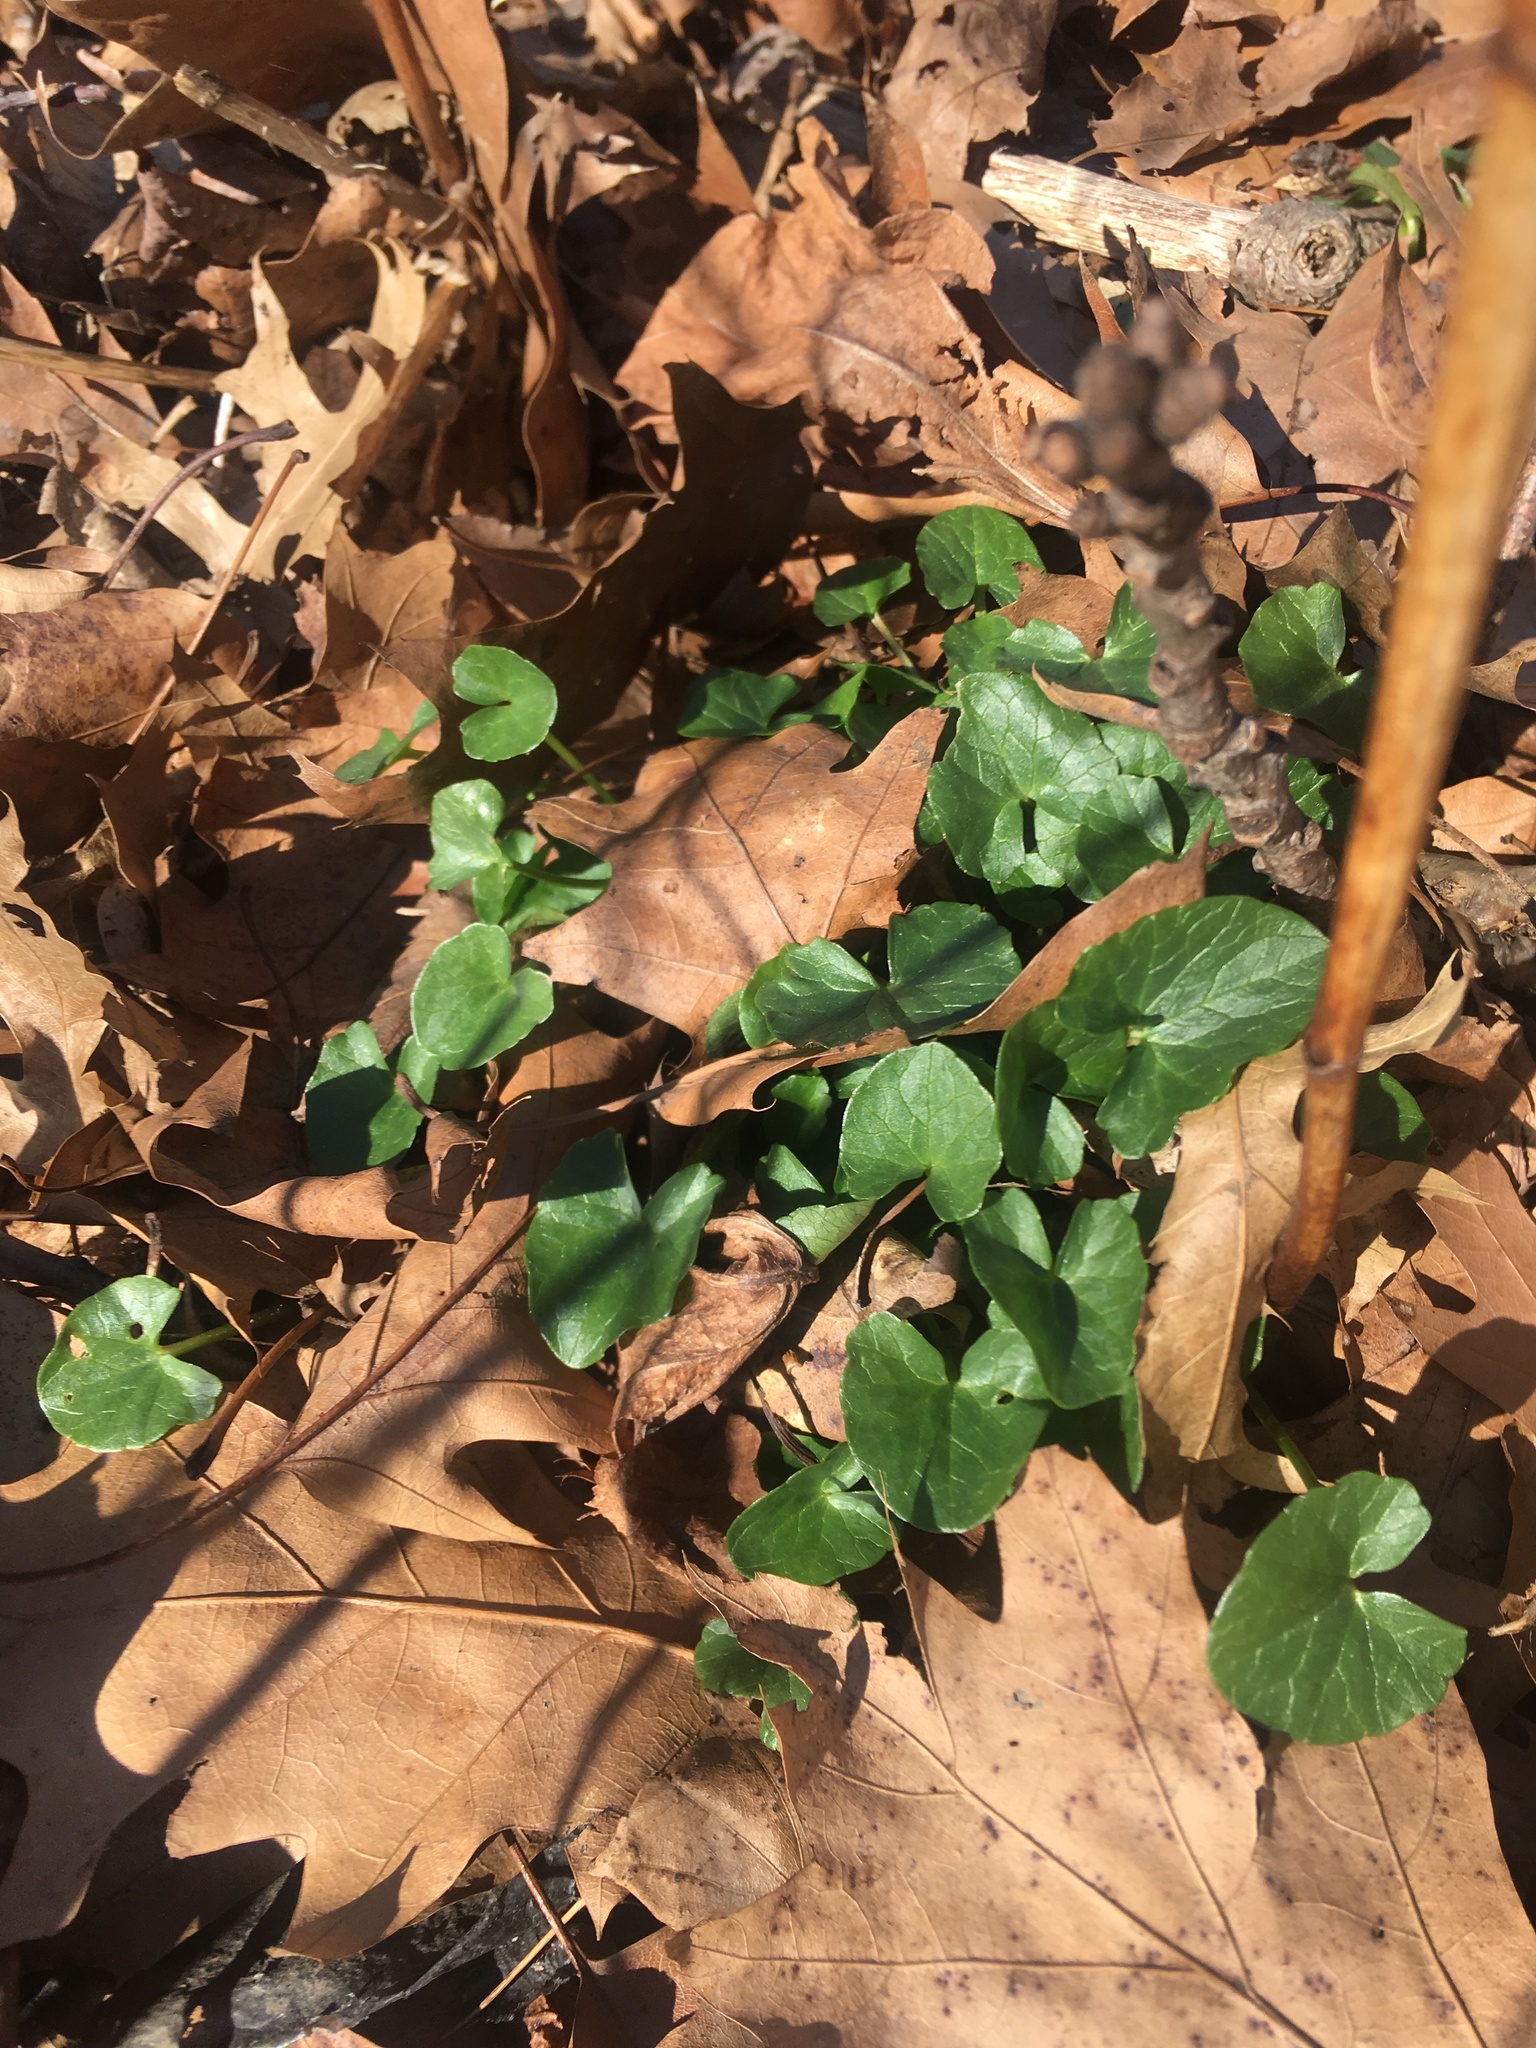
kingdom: Plantae
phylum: Tracheophyta
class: Magnoliopsida
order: Ranunculales
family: Ranunculaceae
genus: Ficaria
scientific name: Ficaria verna
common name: Lesser celandine
